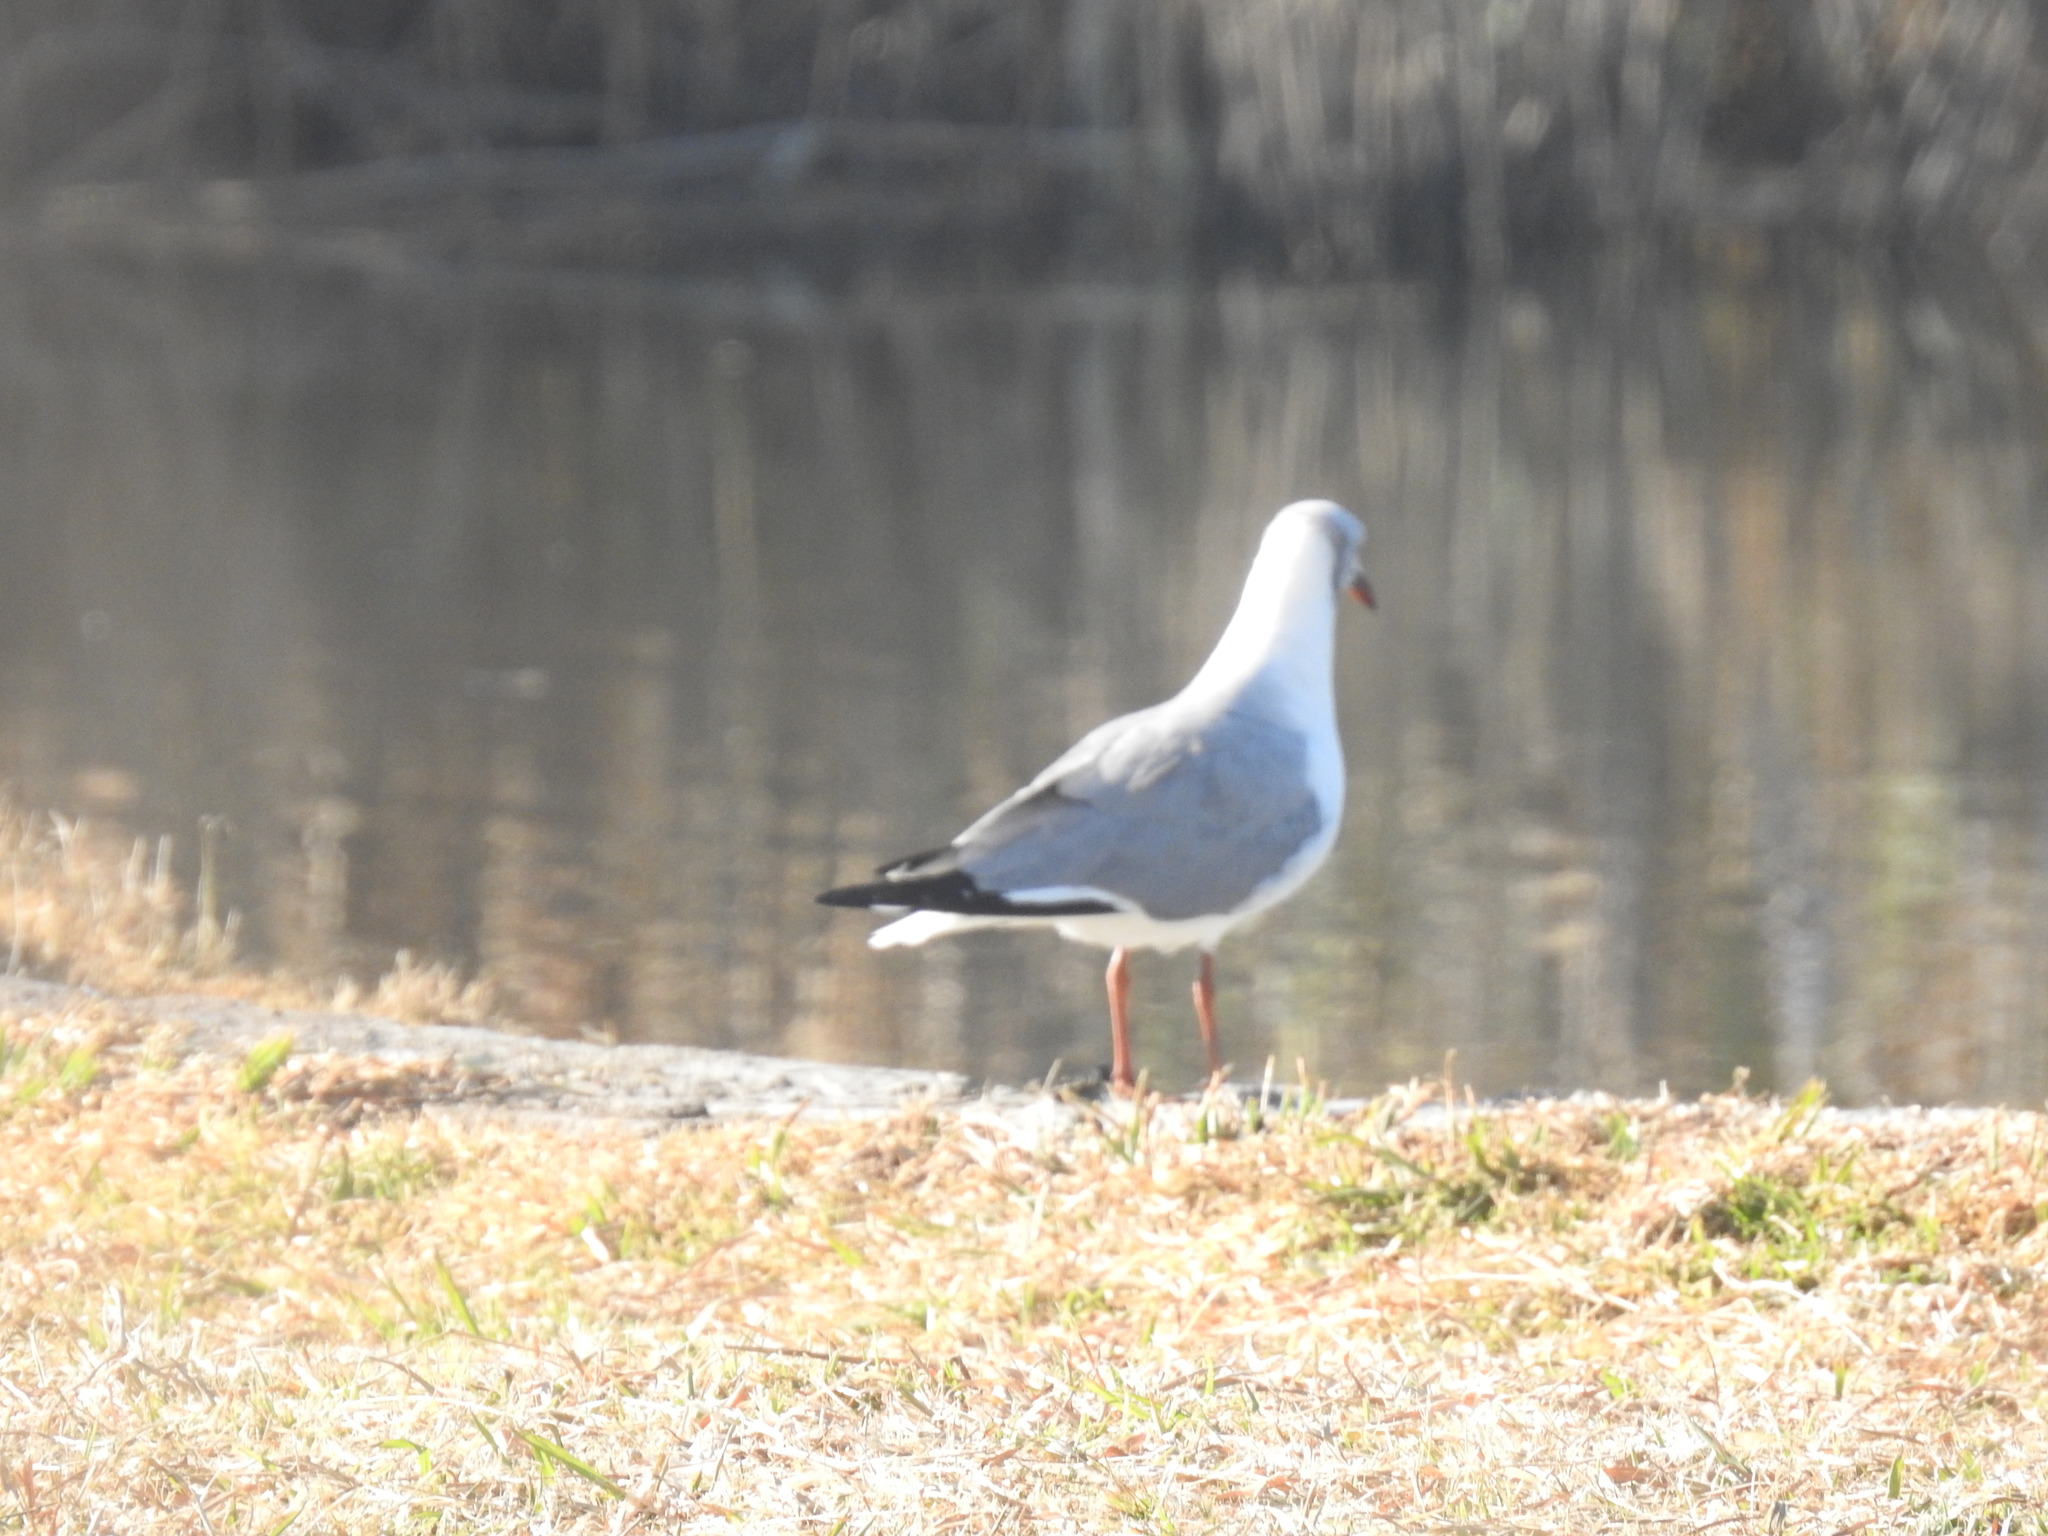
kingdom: Animalia
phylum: Chordata
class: Aves
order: Charadriiformes
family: Laridae
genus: Chroicocephalus
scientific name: Chroicocephalus cirrocephalus
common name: Grey-headed gull
